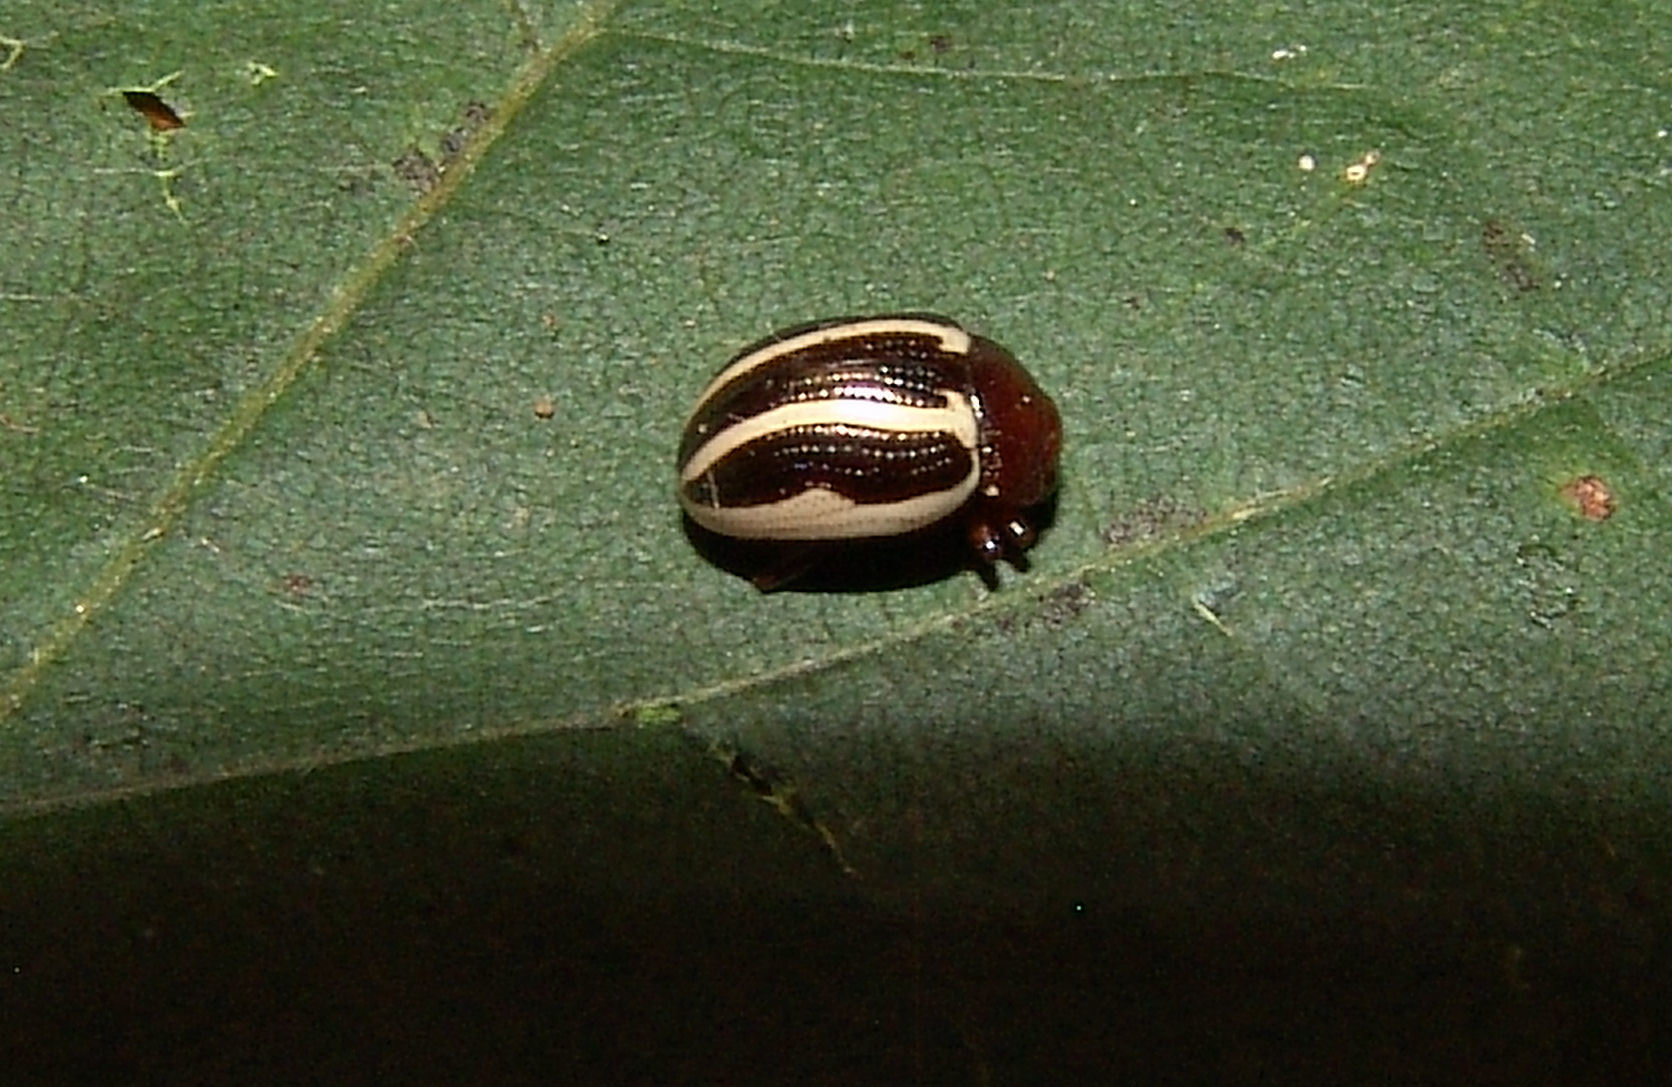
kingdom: Animalia
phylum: Arthropoda
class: Insecta
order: Coleoptera
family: Chrysomelidae
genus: Calligrapha
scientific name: Calligrapha
